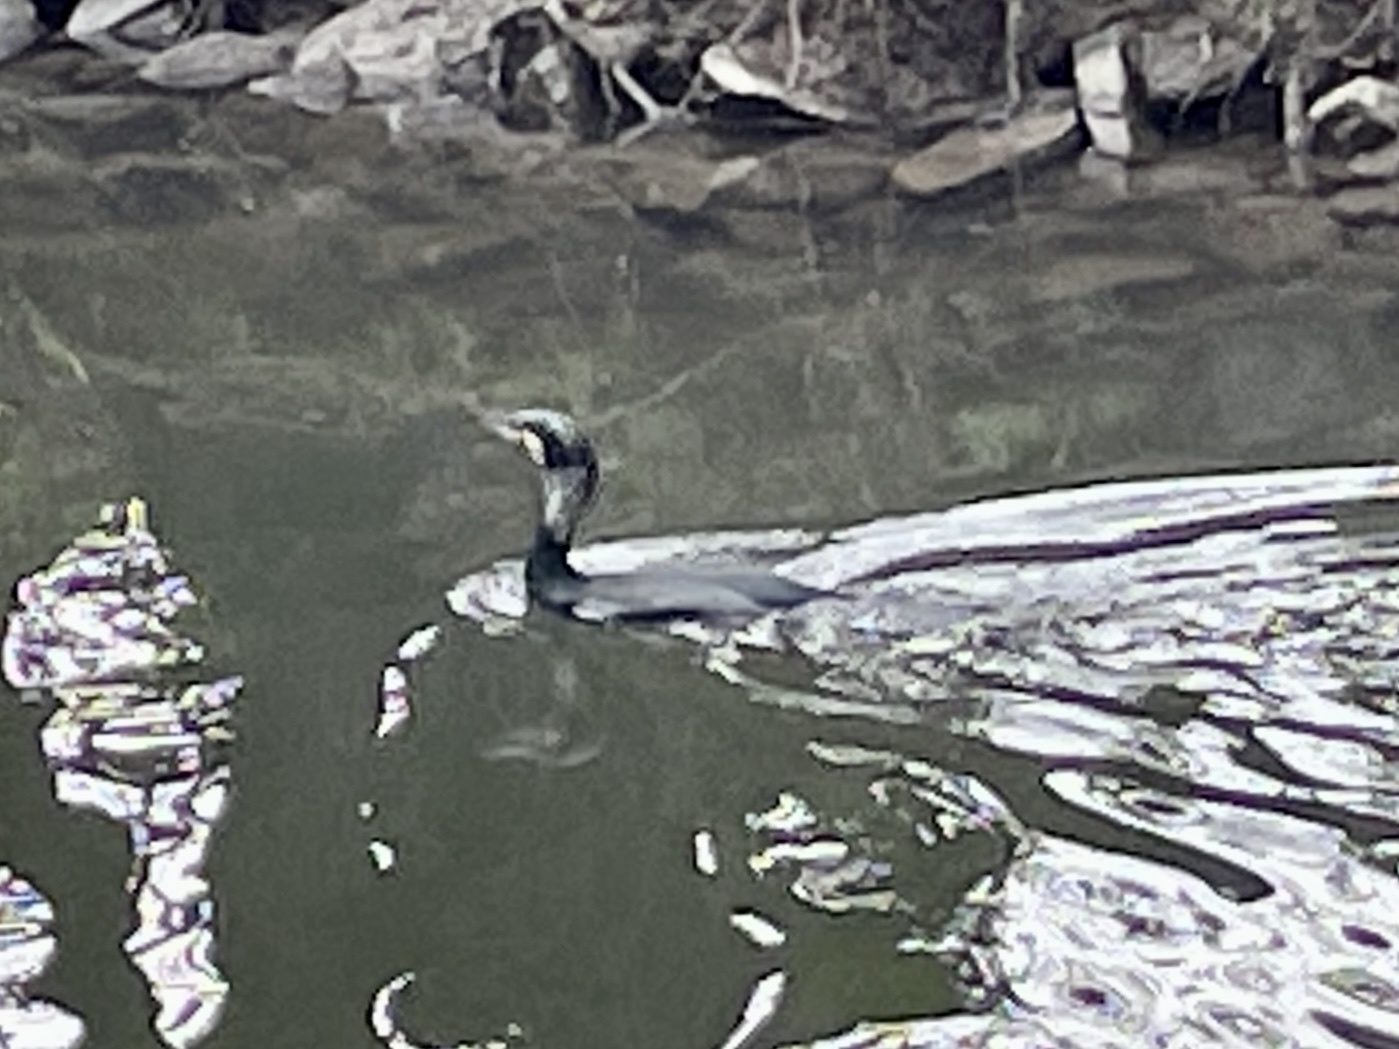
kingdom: Animalia
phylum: Chordata
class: Aves
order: Suliformes
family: Phalacrocoracidae
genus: Phalacrocorax
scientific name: Phalacrocorax carbo
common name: Great cormorant
